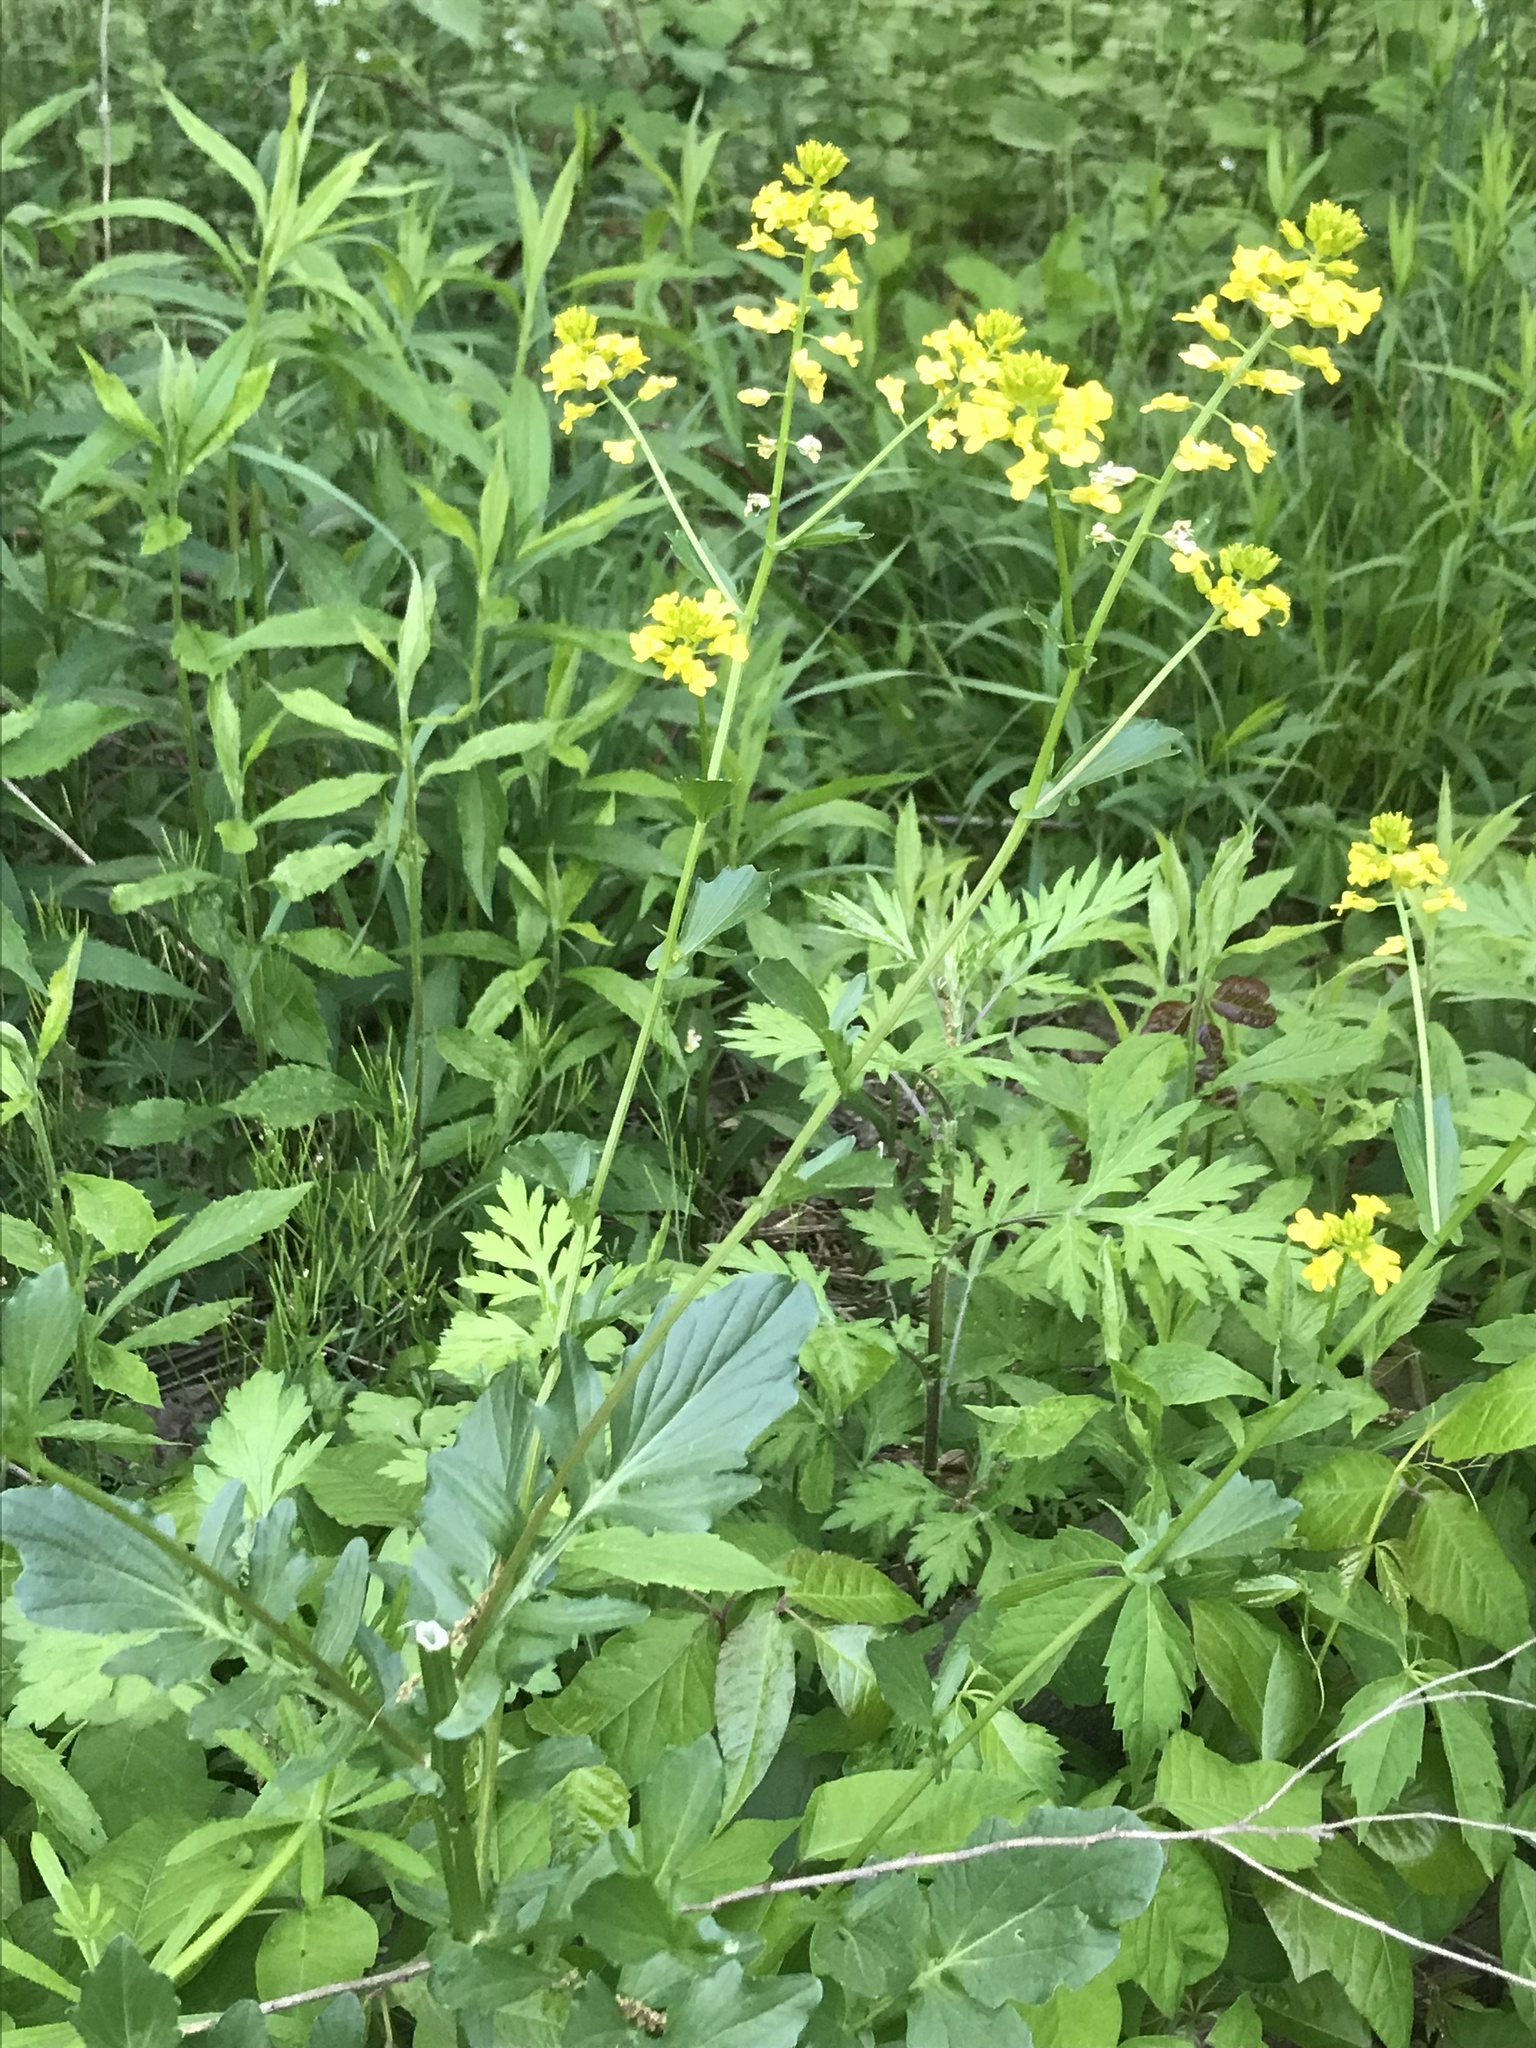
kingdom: Plantae
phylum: Tracheophyta
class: Magnoliopsida
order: Brassicales
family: Brassicaceae
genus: Barbarea
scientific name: Barbarea vulgaris
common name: Cressy-greens
